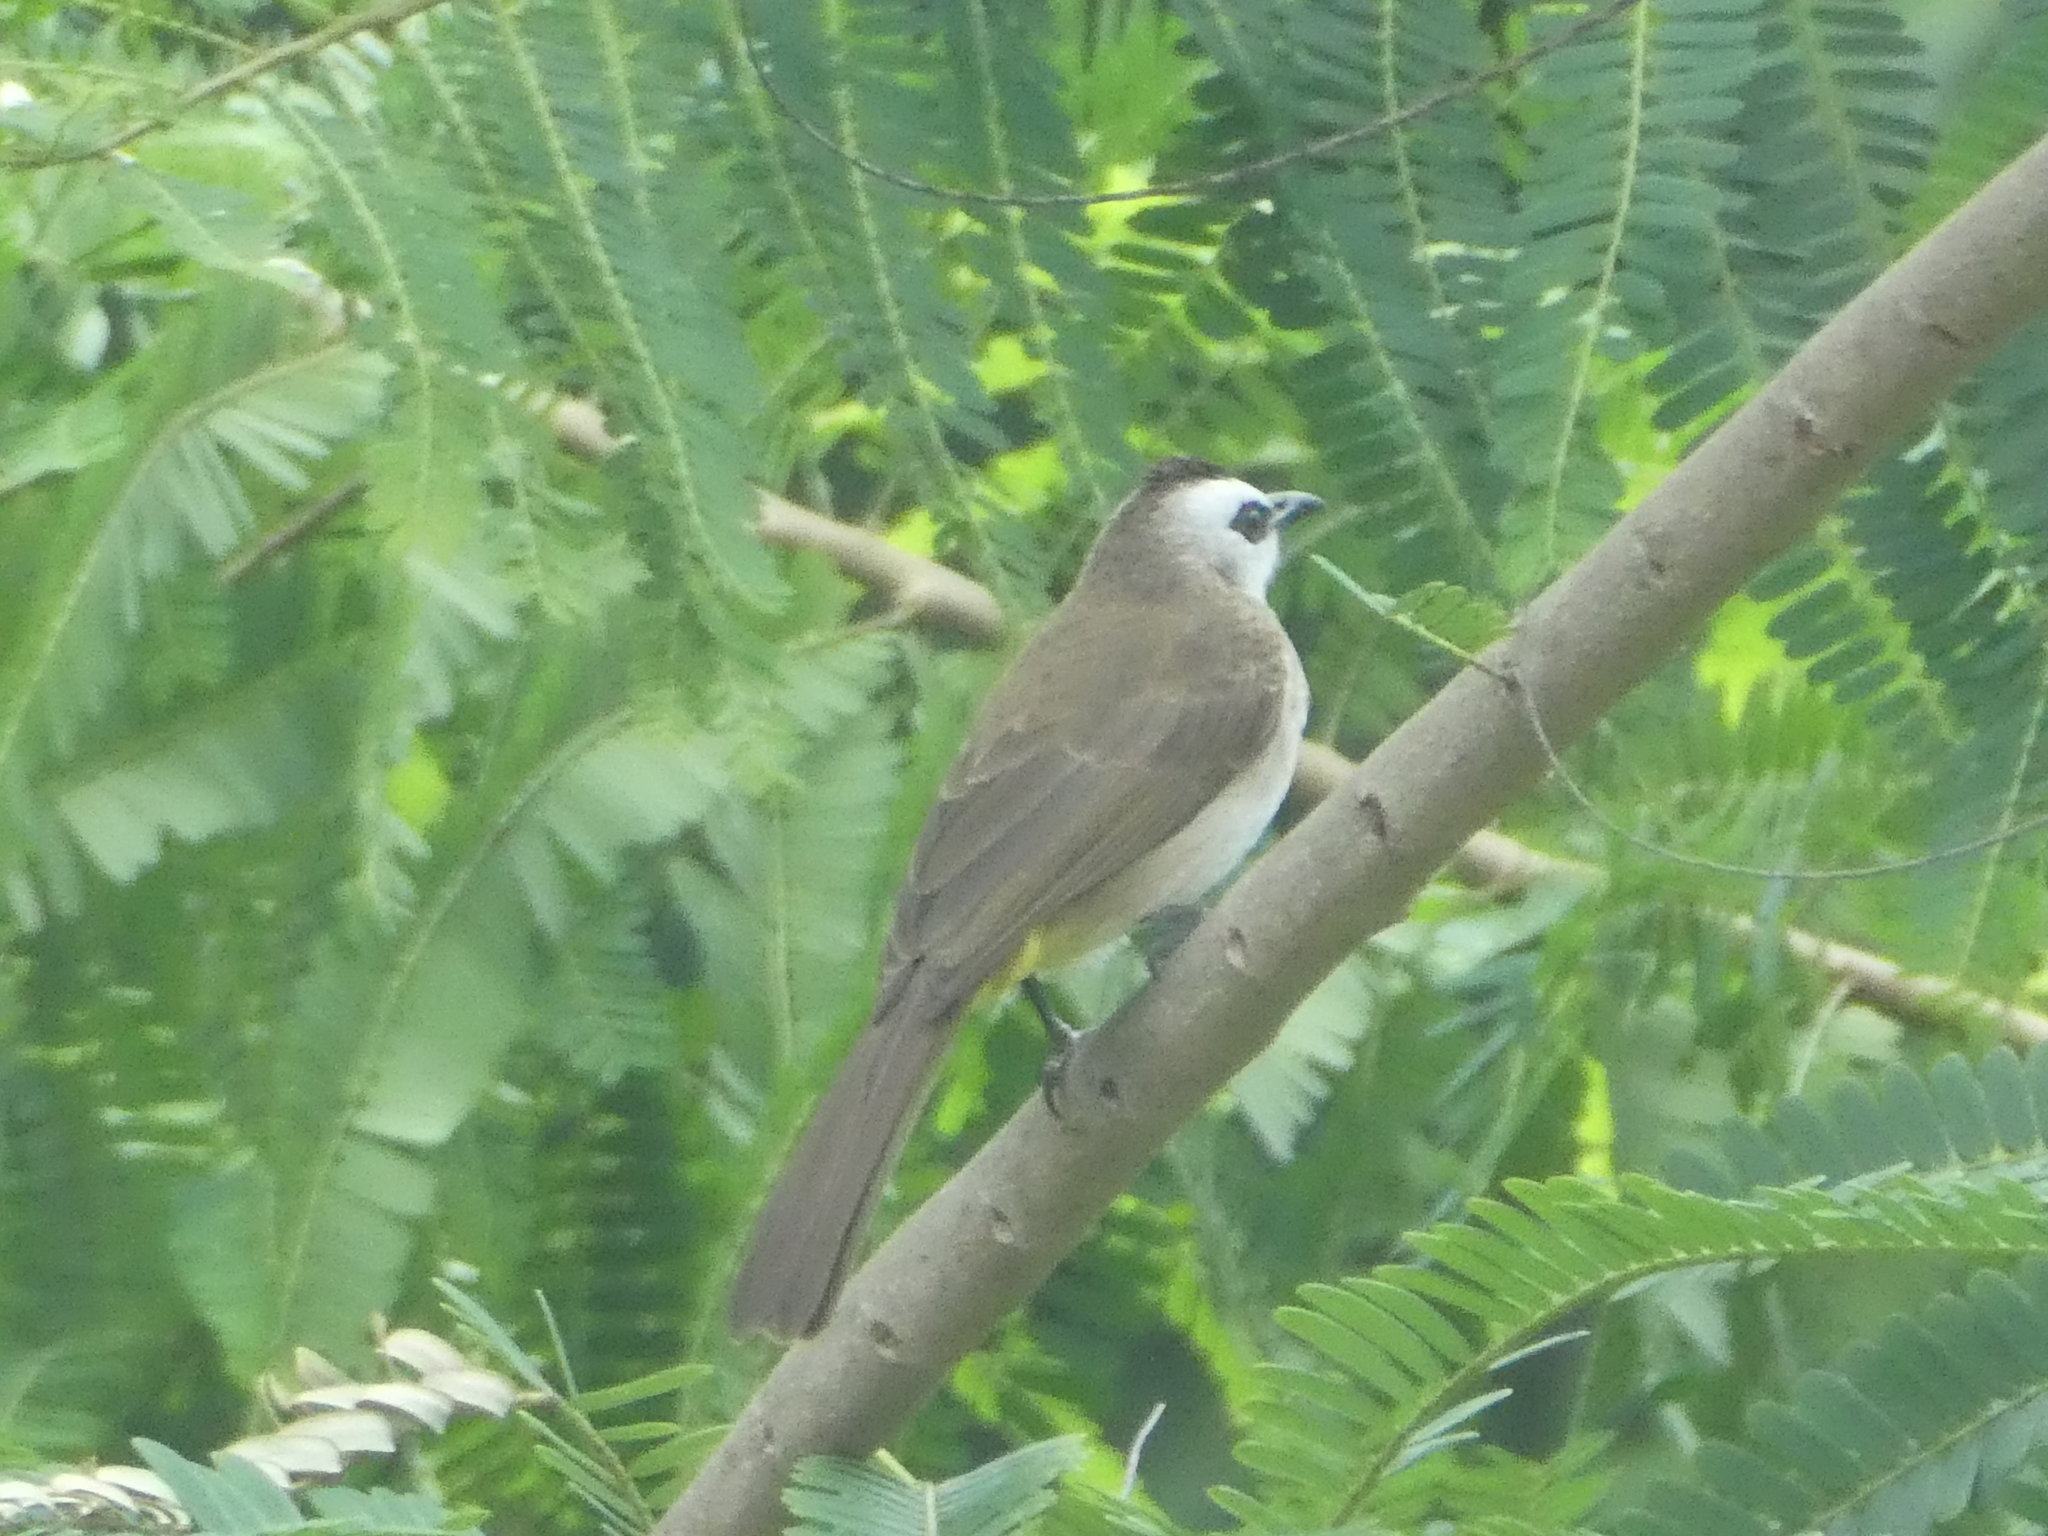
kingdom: Animalia
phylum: Chordata
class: Aves
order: Passeriformes
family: Pycnonotidae
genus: Pycnonotus
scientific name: Pycnonotus goiavier
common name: Yellow-vented bulbul
